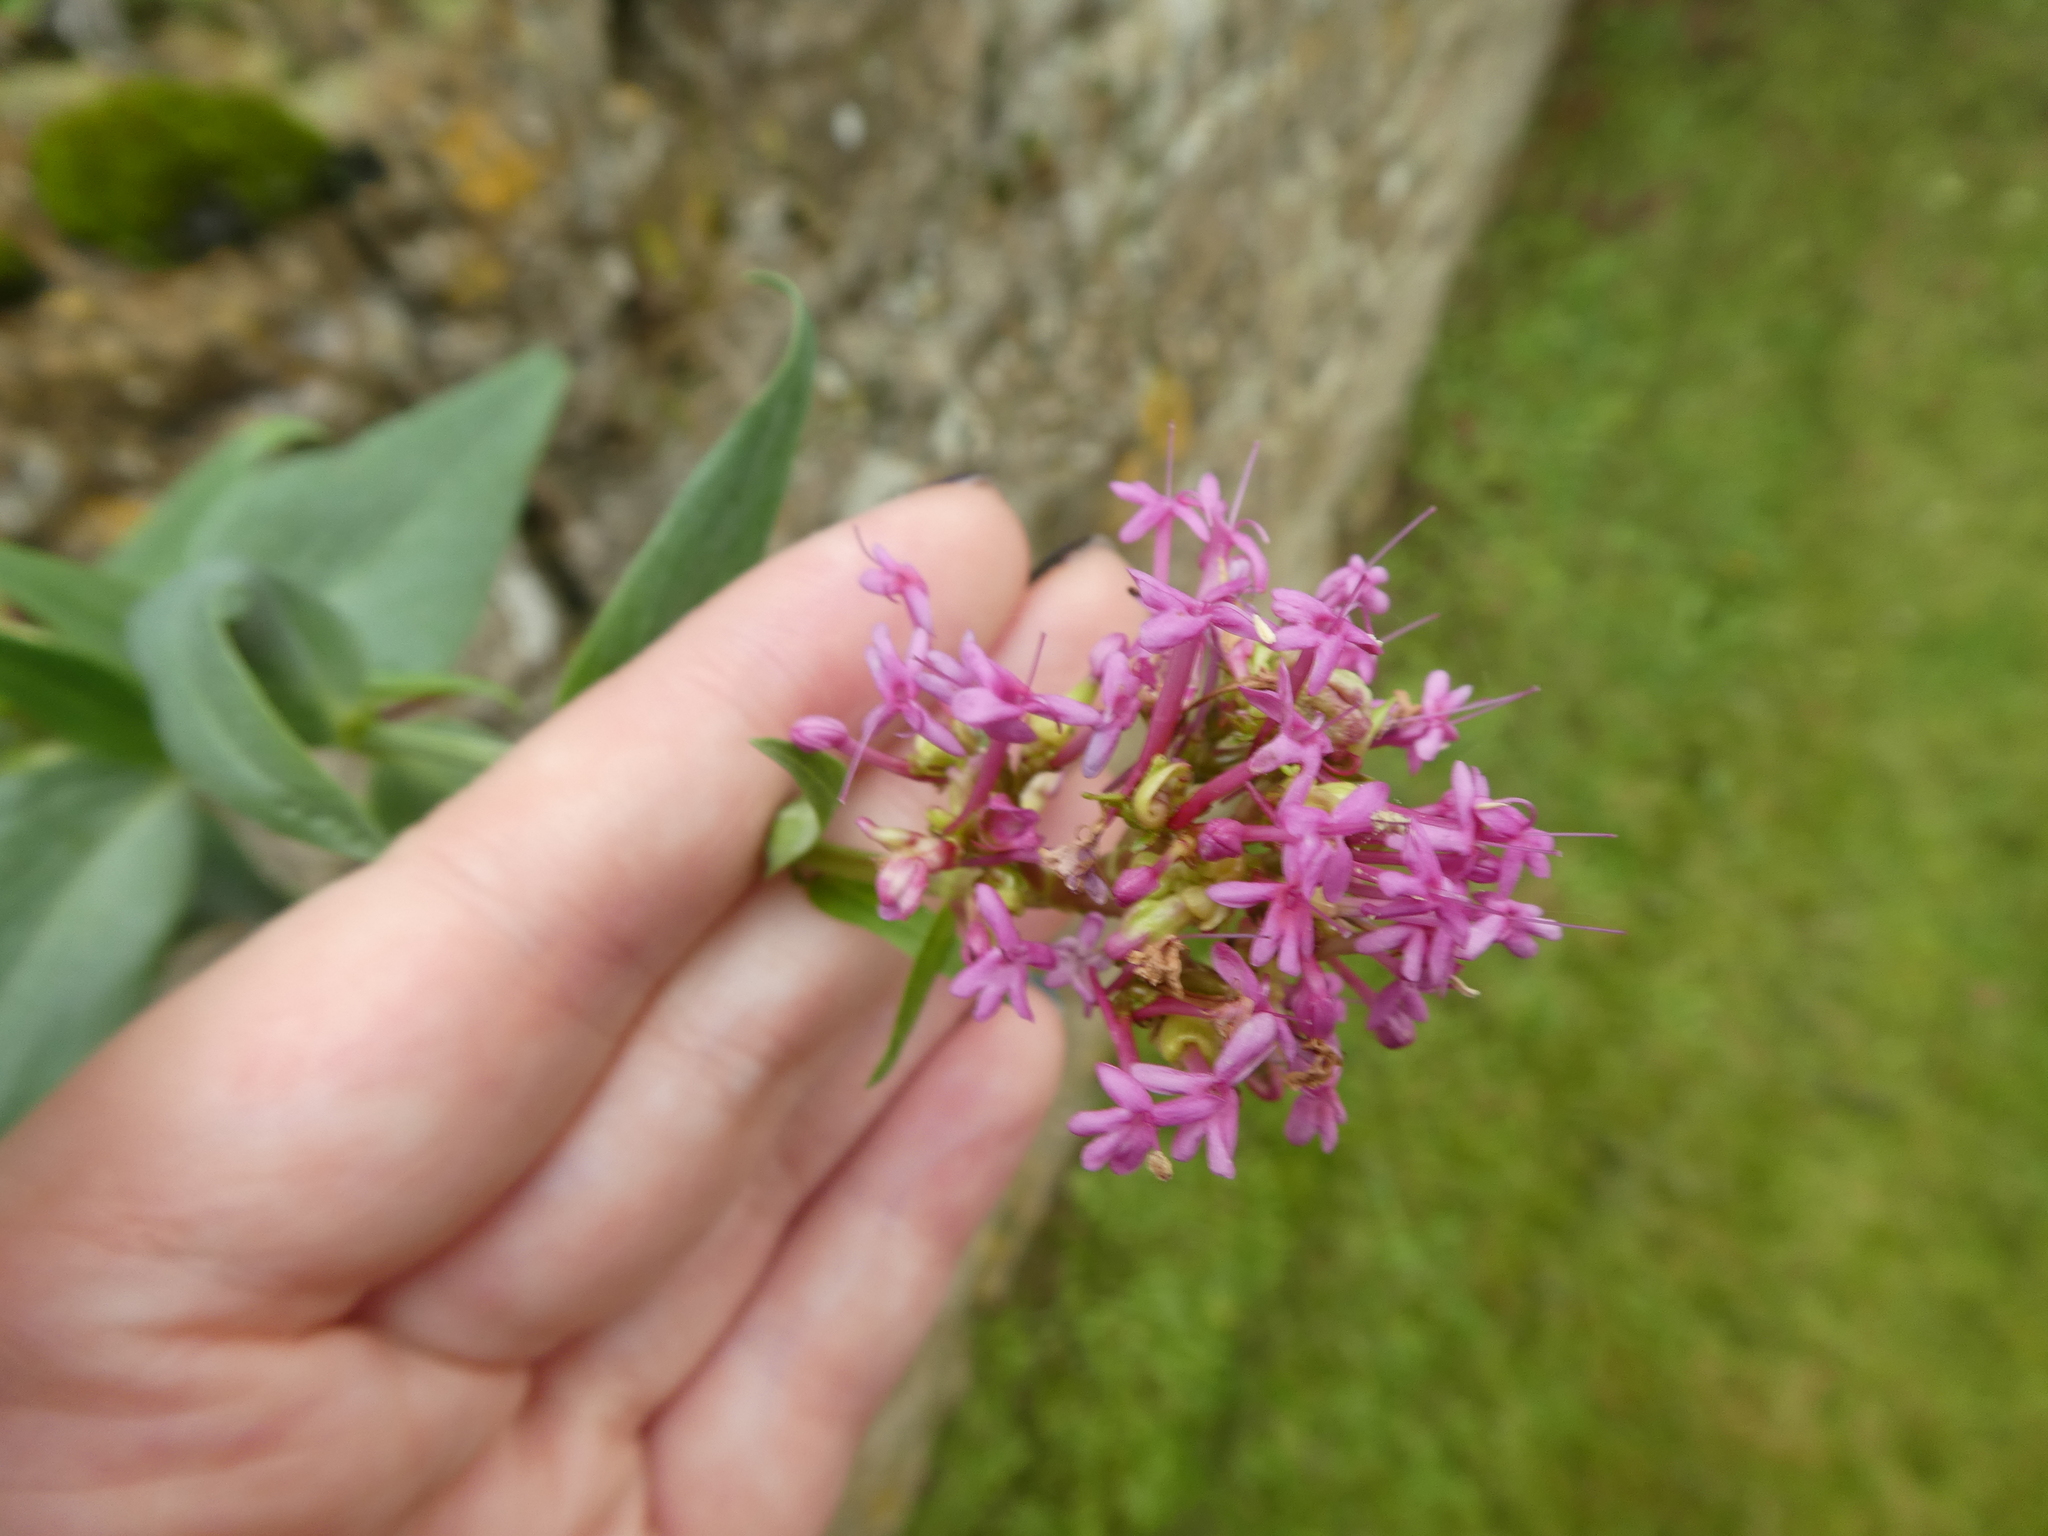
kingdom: Plantae
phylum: Tracheophyta
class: Magnoliopsida
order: Dipsacales
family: Caprifoliaceae
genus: Centranthus
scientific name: Centranthus ruber
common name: Red valerian
